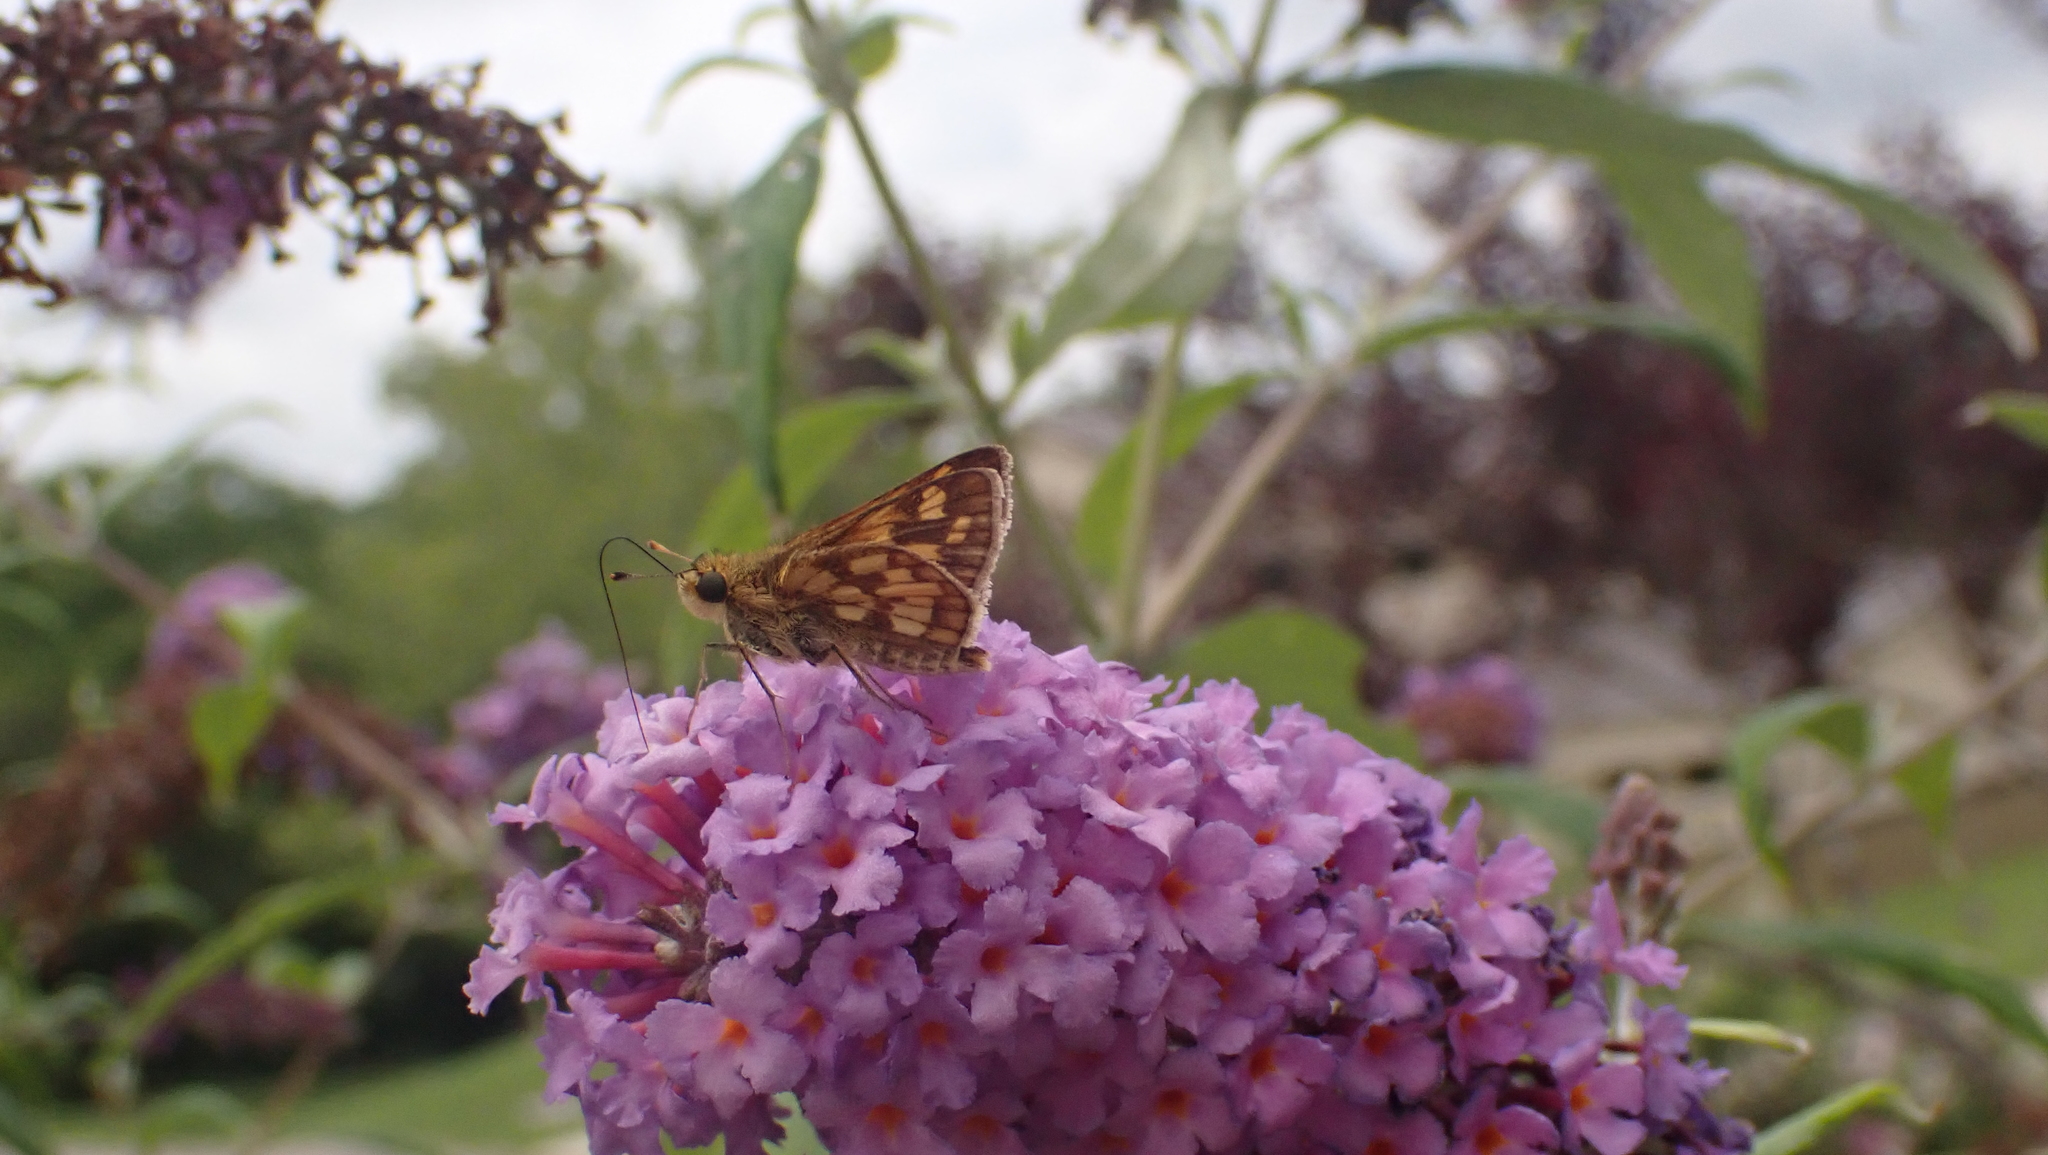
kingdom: Animalia
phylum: Arthropoda
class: Insecta
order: Lepidoptera
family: Hesperiidae
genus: Polites
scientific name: Polites coras
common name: Peck's skipper
